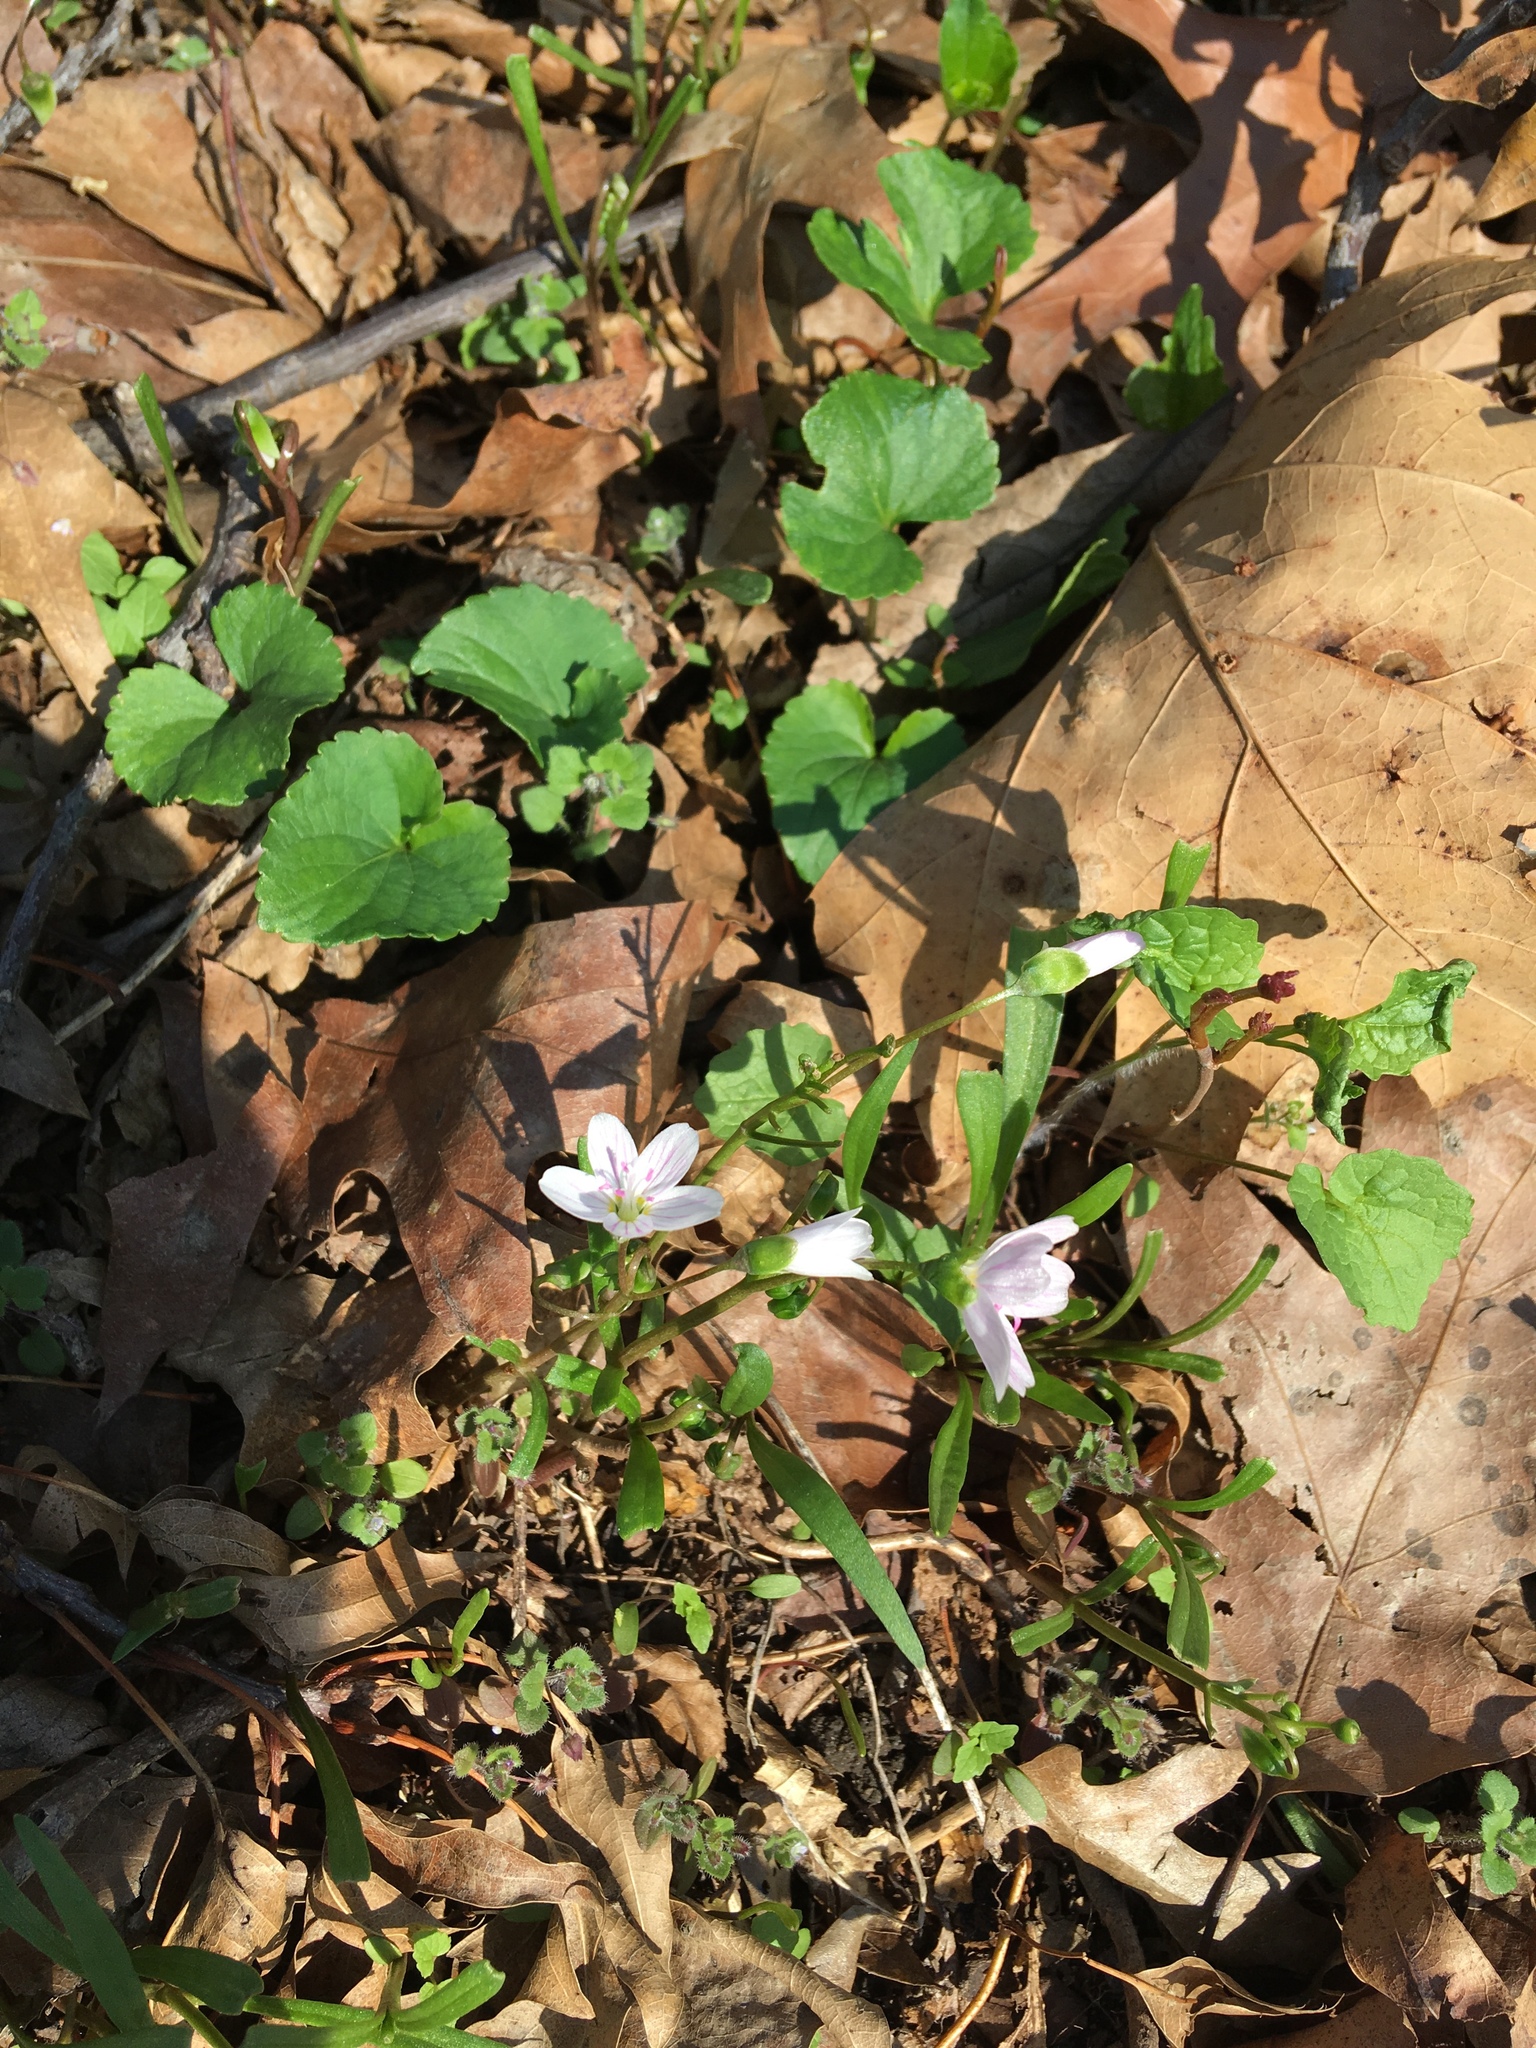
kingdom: Plantae
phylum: Tracheophyta
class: Magnoliopsida
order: Caryophyllales
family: Montiaceae
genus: Claytonia
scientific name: Claytonia virginica
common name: Virginia springbeauty
